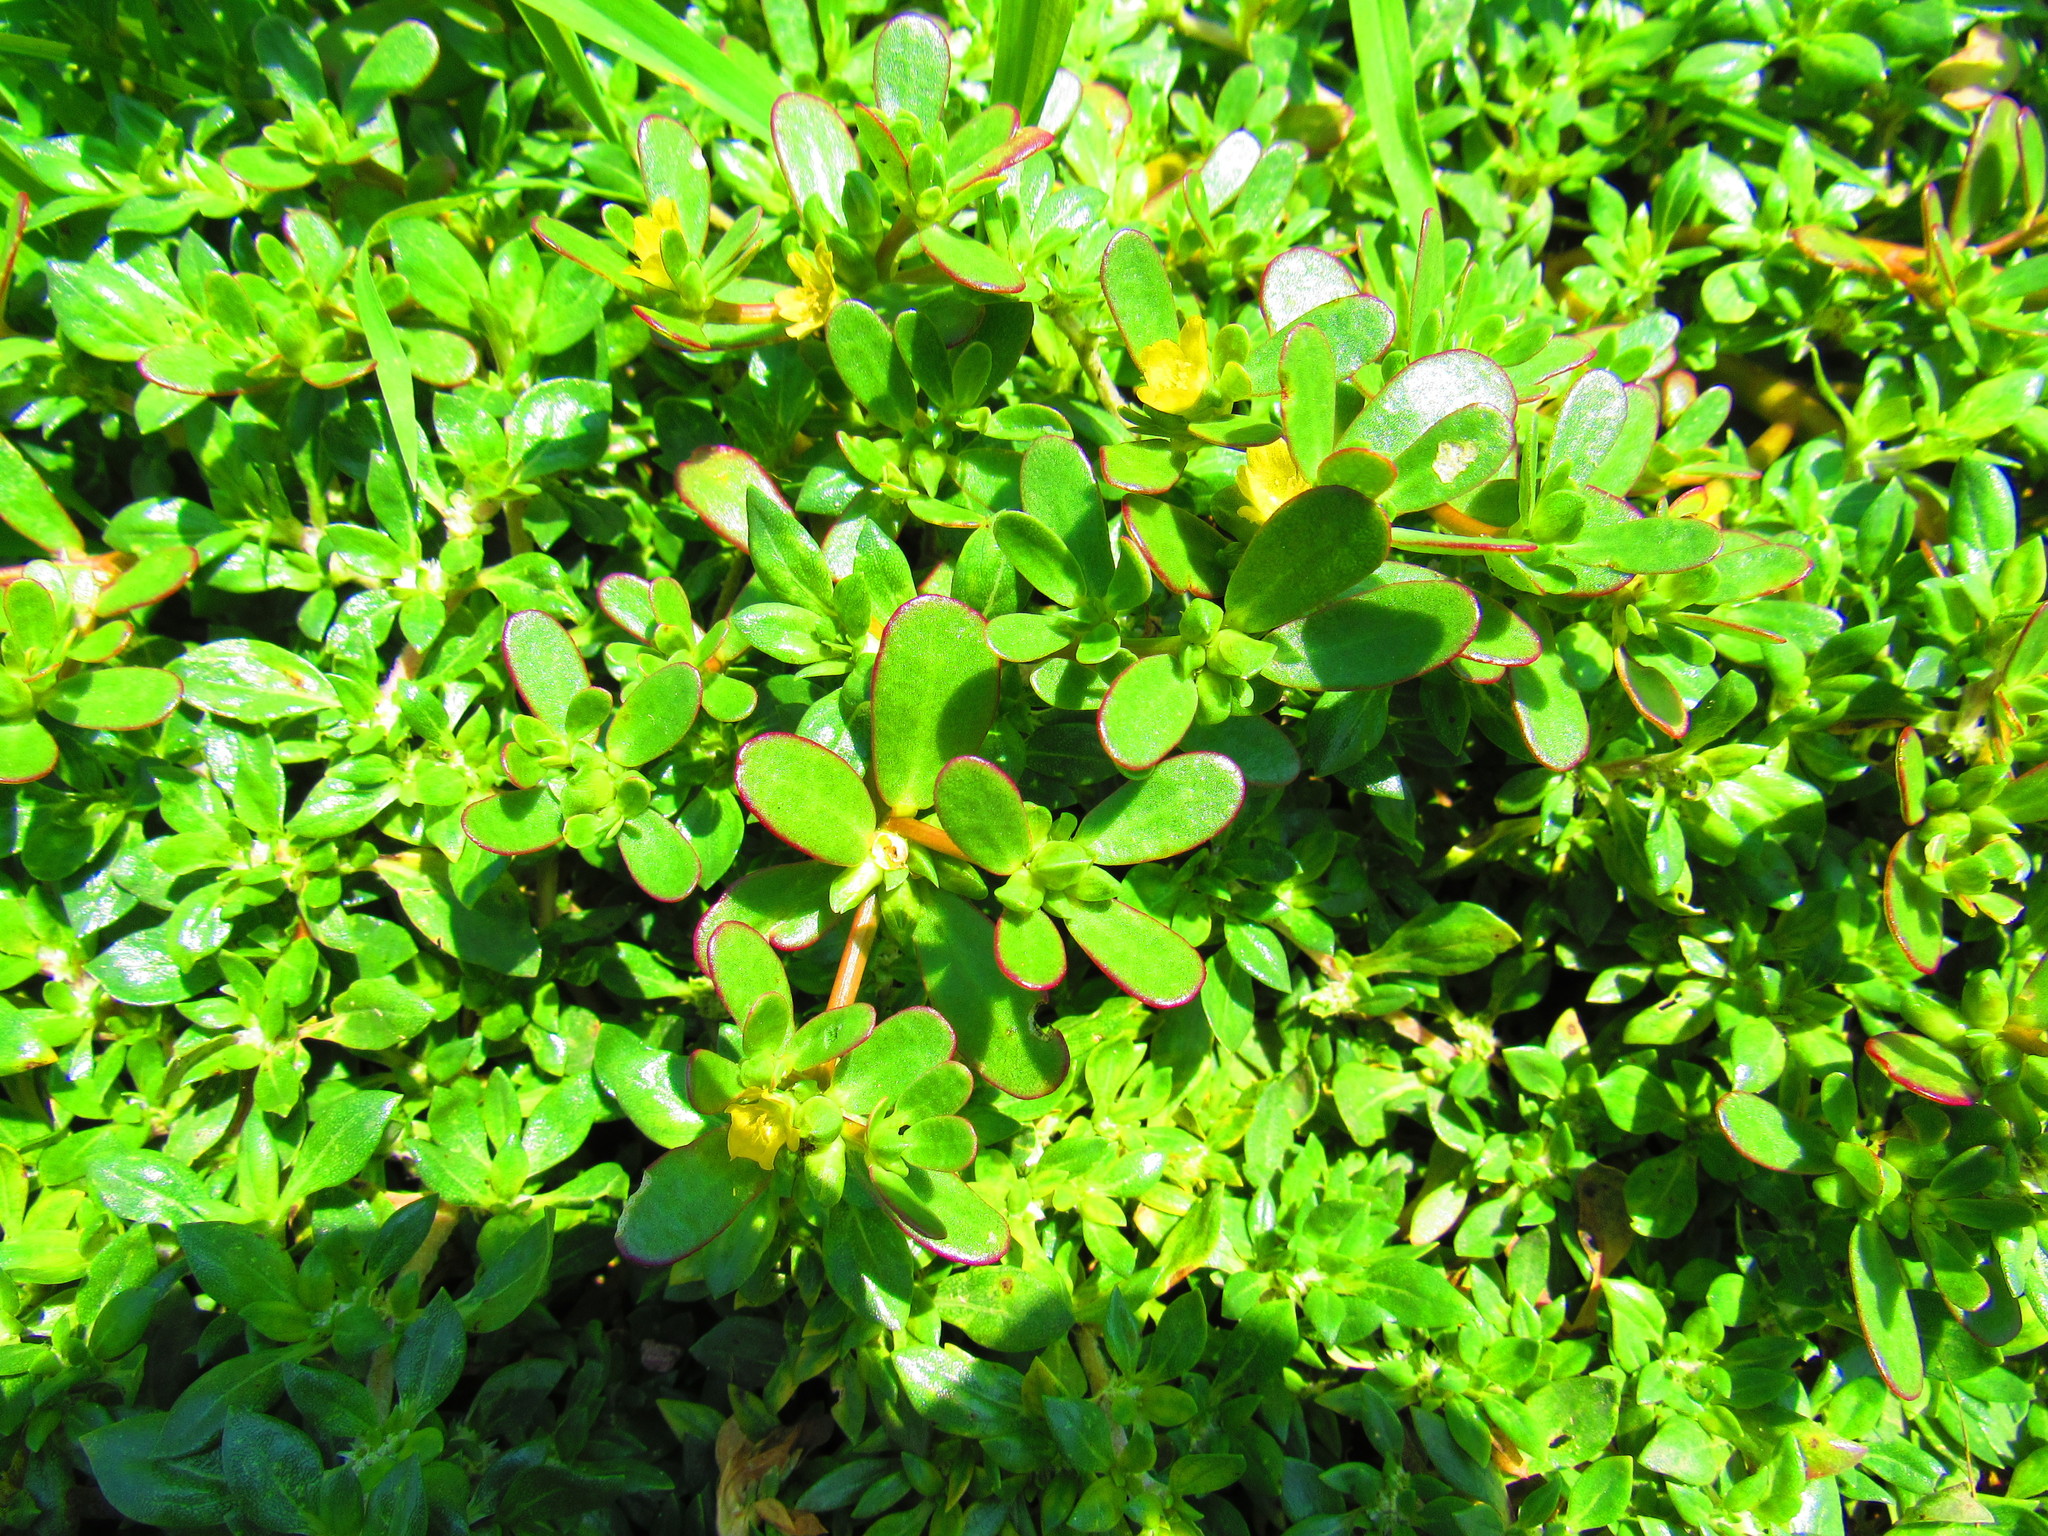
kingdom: Plantae
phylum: Tracheophyta
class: Magnoliopsida
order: Caryophyllales
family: Portulacaceae
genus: Portulaca
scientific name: Portulaca oleracea
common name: Common purslane
